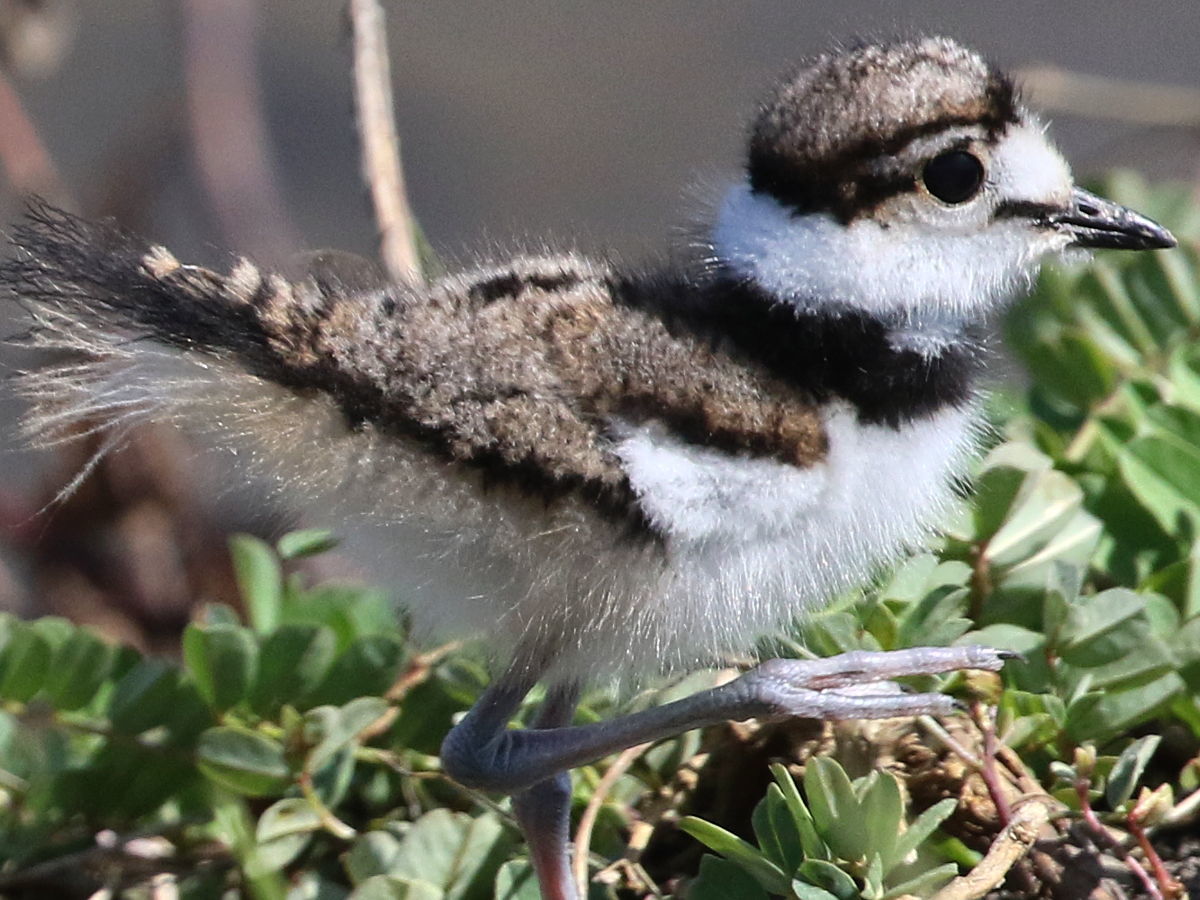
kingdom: Animalia
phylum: Chordata
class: Aves
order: Charadriiformes
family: Charadriidae
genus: Charadrius
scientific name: Charadrius vociferus
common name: Killdeer
